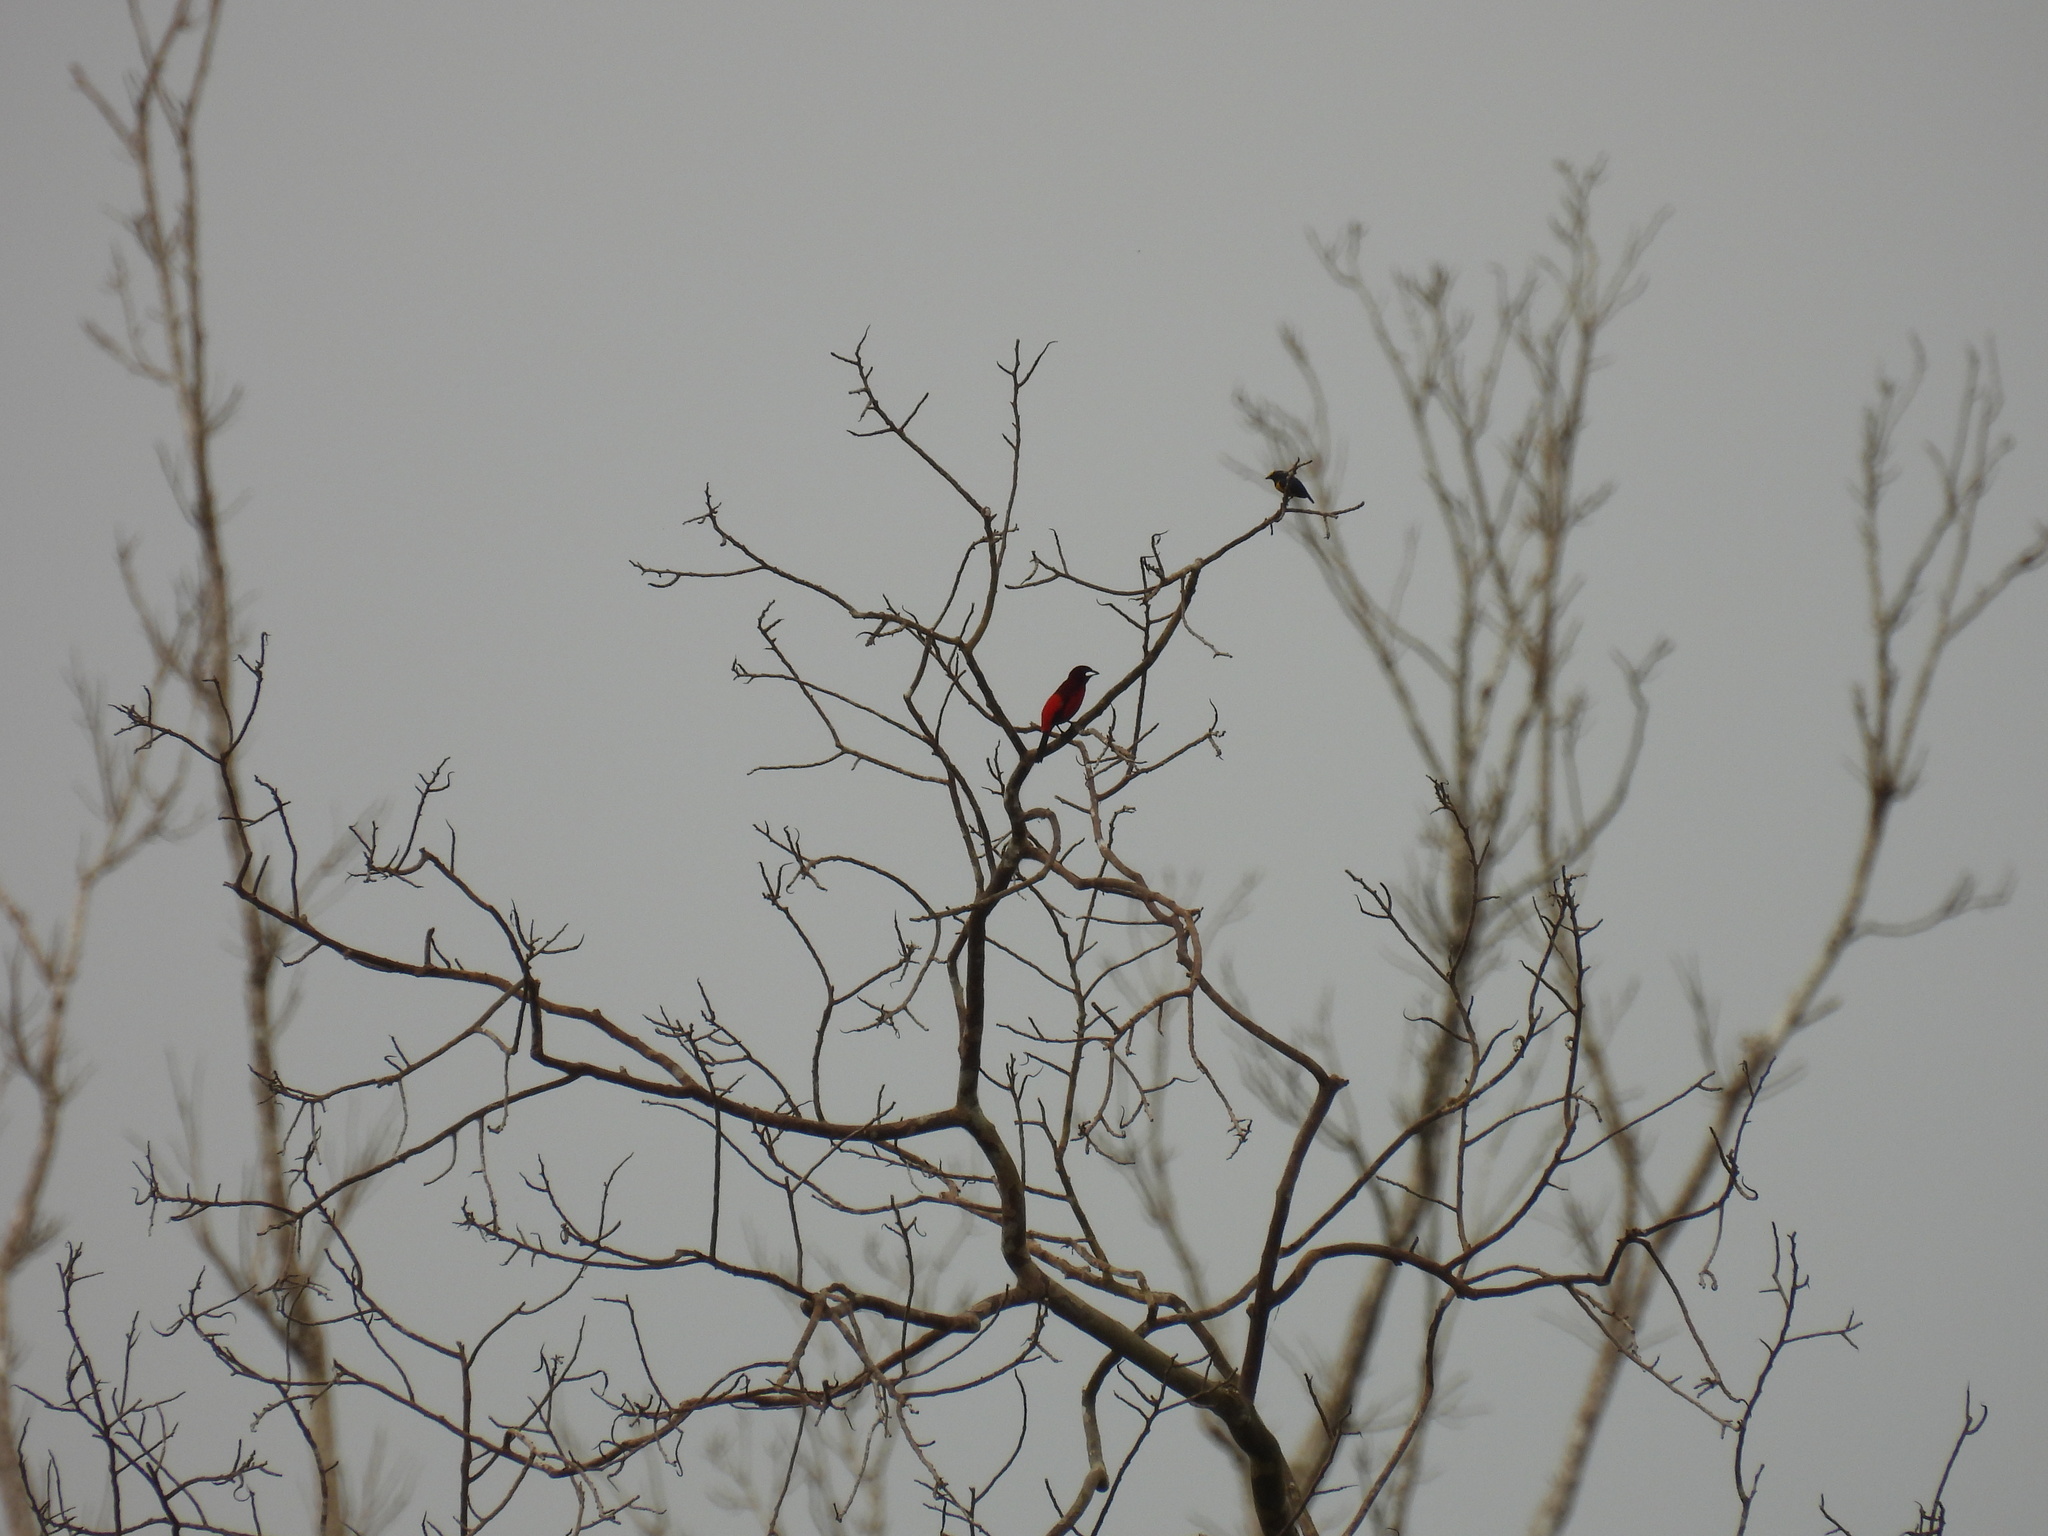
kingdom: Animalia
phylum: Chordata
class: Aves
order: Passeriformes
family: Thraupidae
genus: Ramphocelus
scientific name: Ramphocelus dimidiatus
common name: Crimson-backed tanager
